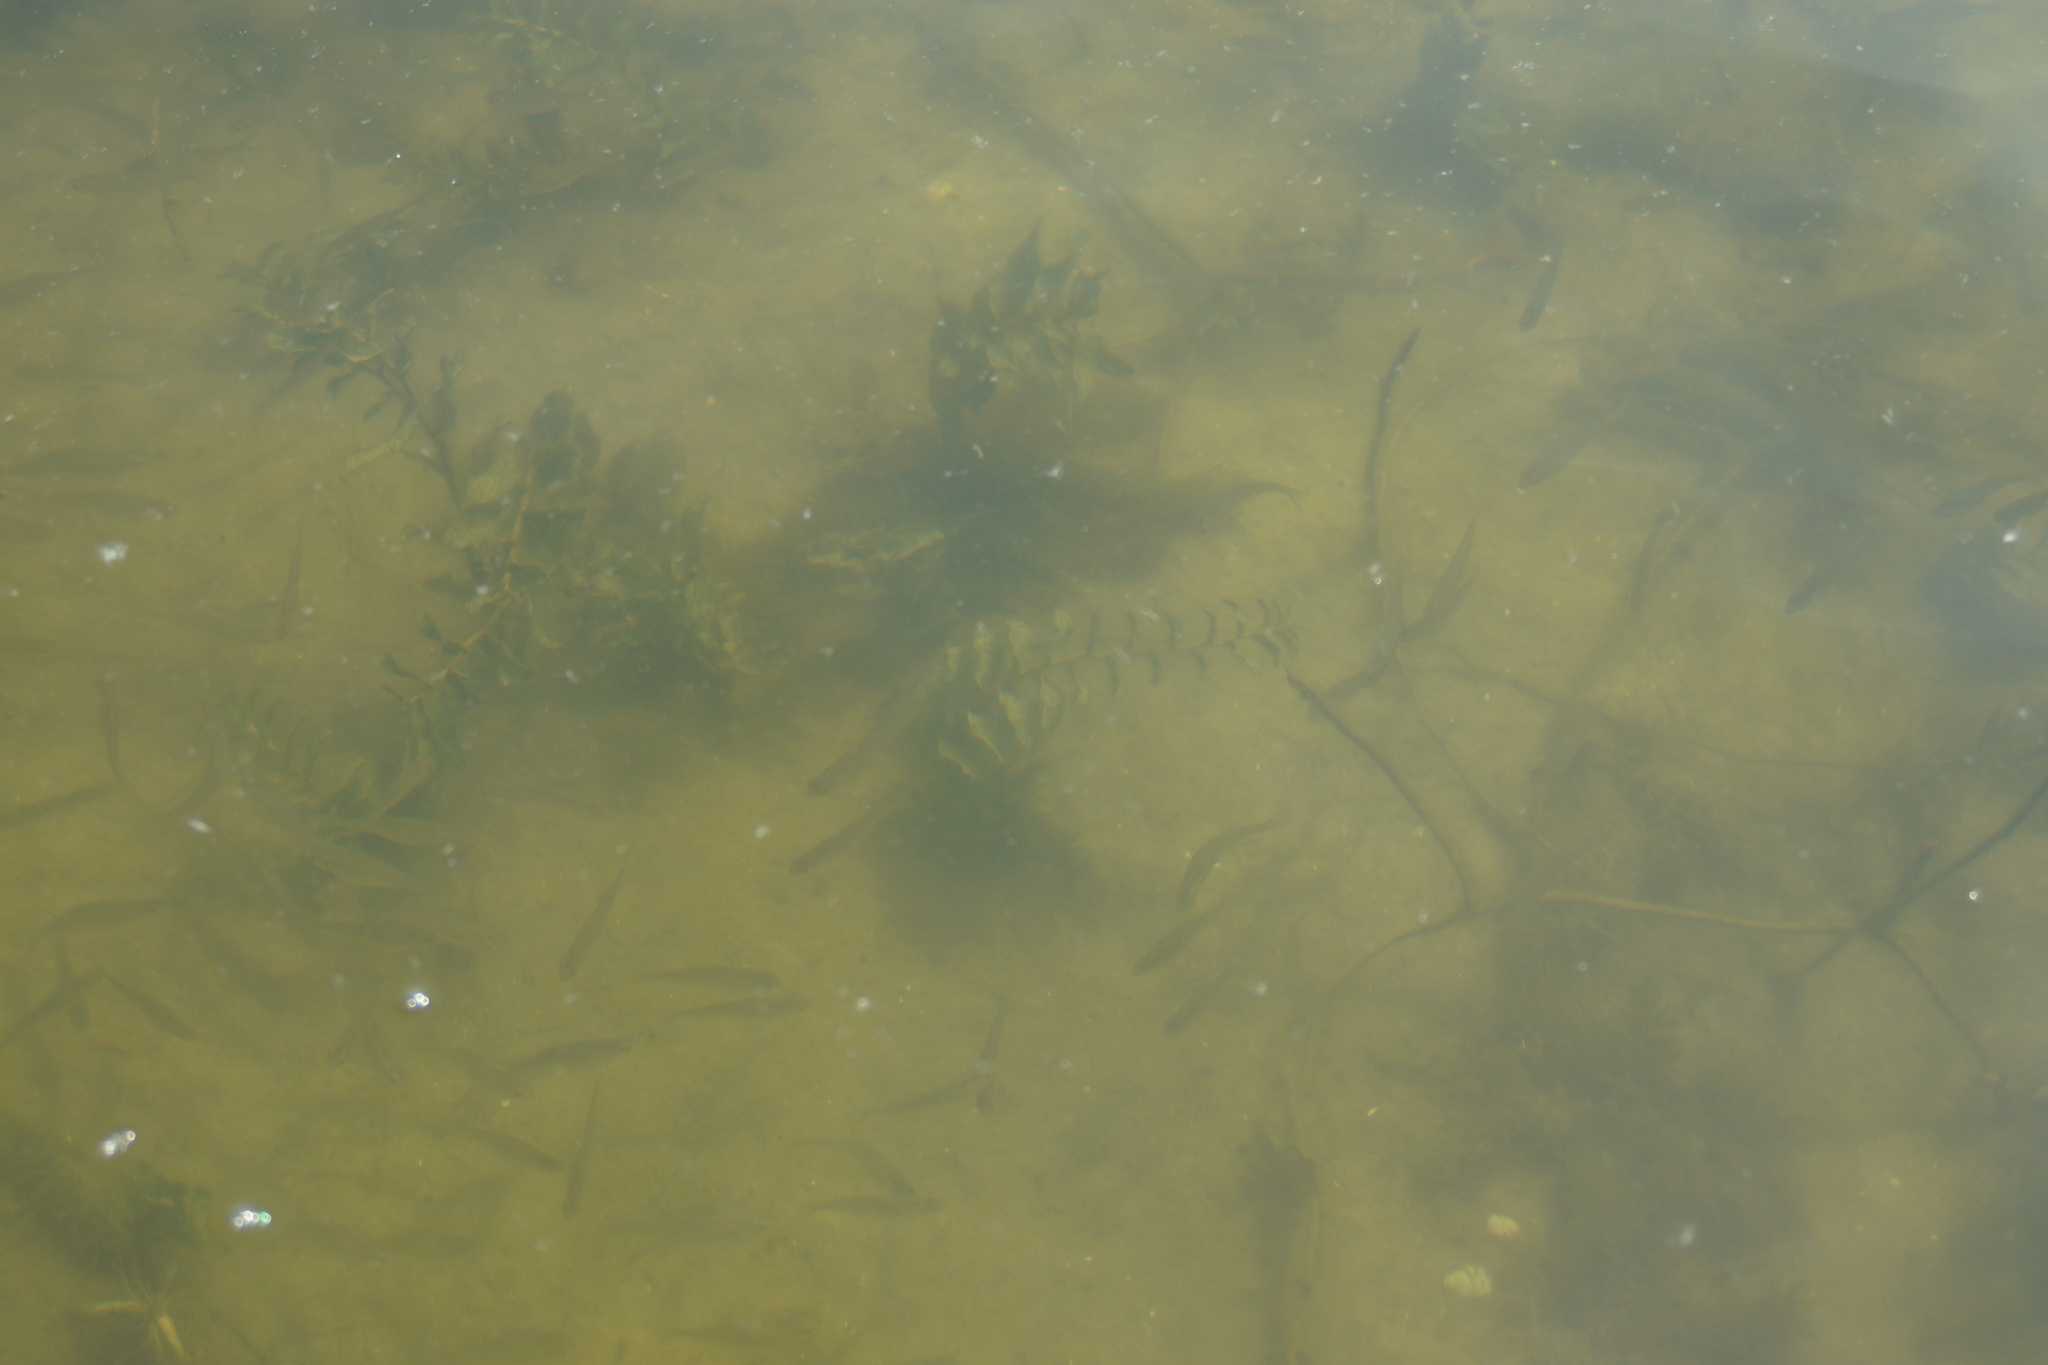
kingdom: Plantae
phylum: Tracheophyta
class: Liliopsida
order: Alismatales
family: Potamogetonaceae
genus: Potamogeton
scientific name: Potamogeton perfoliatus
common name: Perfoliate pondweed
